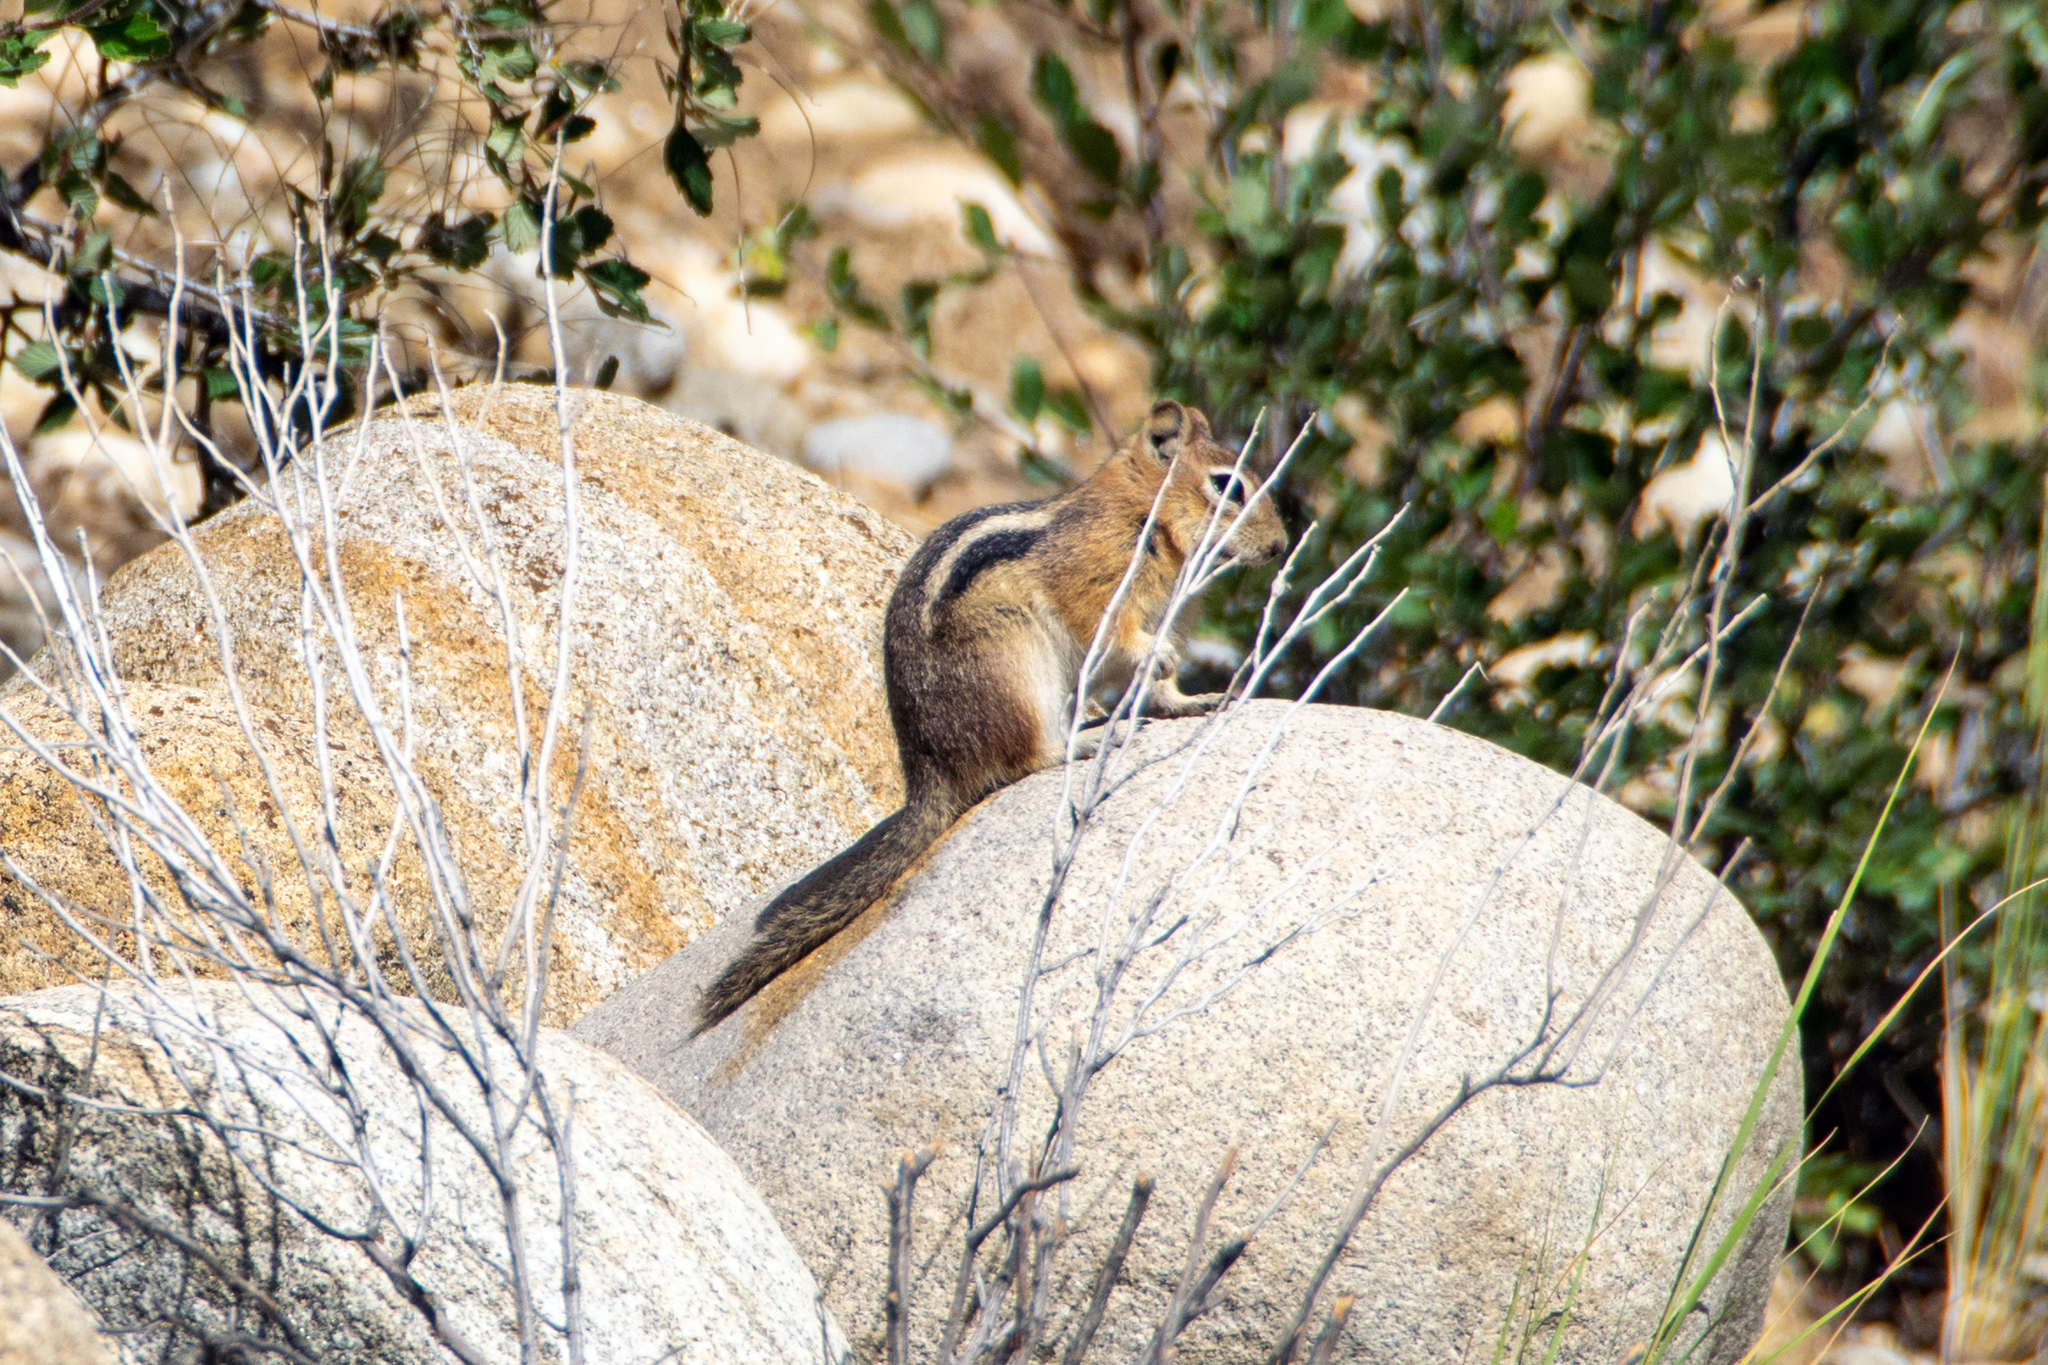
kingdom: Animalia
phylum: Chordata
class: Mammalia
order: Rodentia
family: Sciuridae
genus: Callospermophilus
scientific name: Callospermophilus lateralis
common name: Golden-mantled ground squirrel
